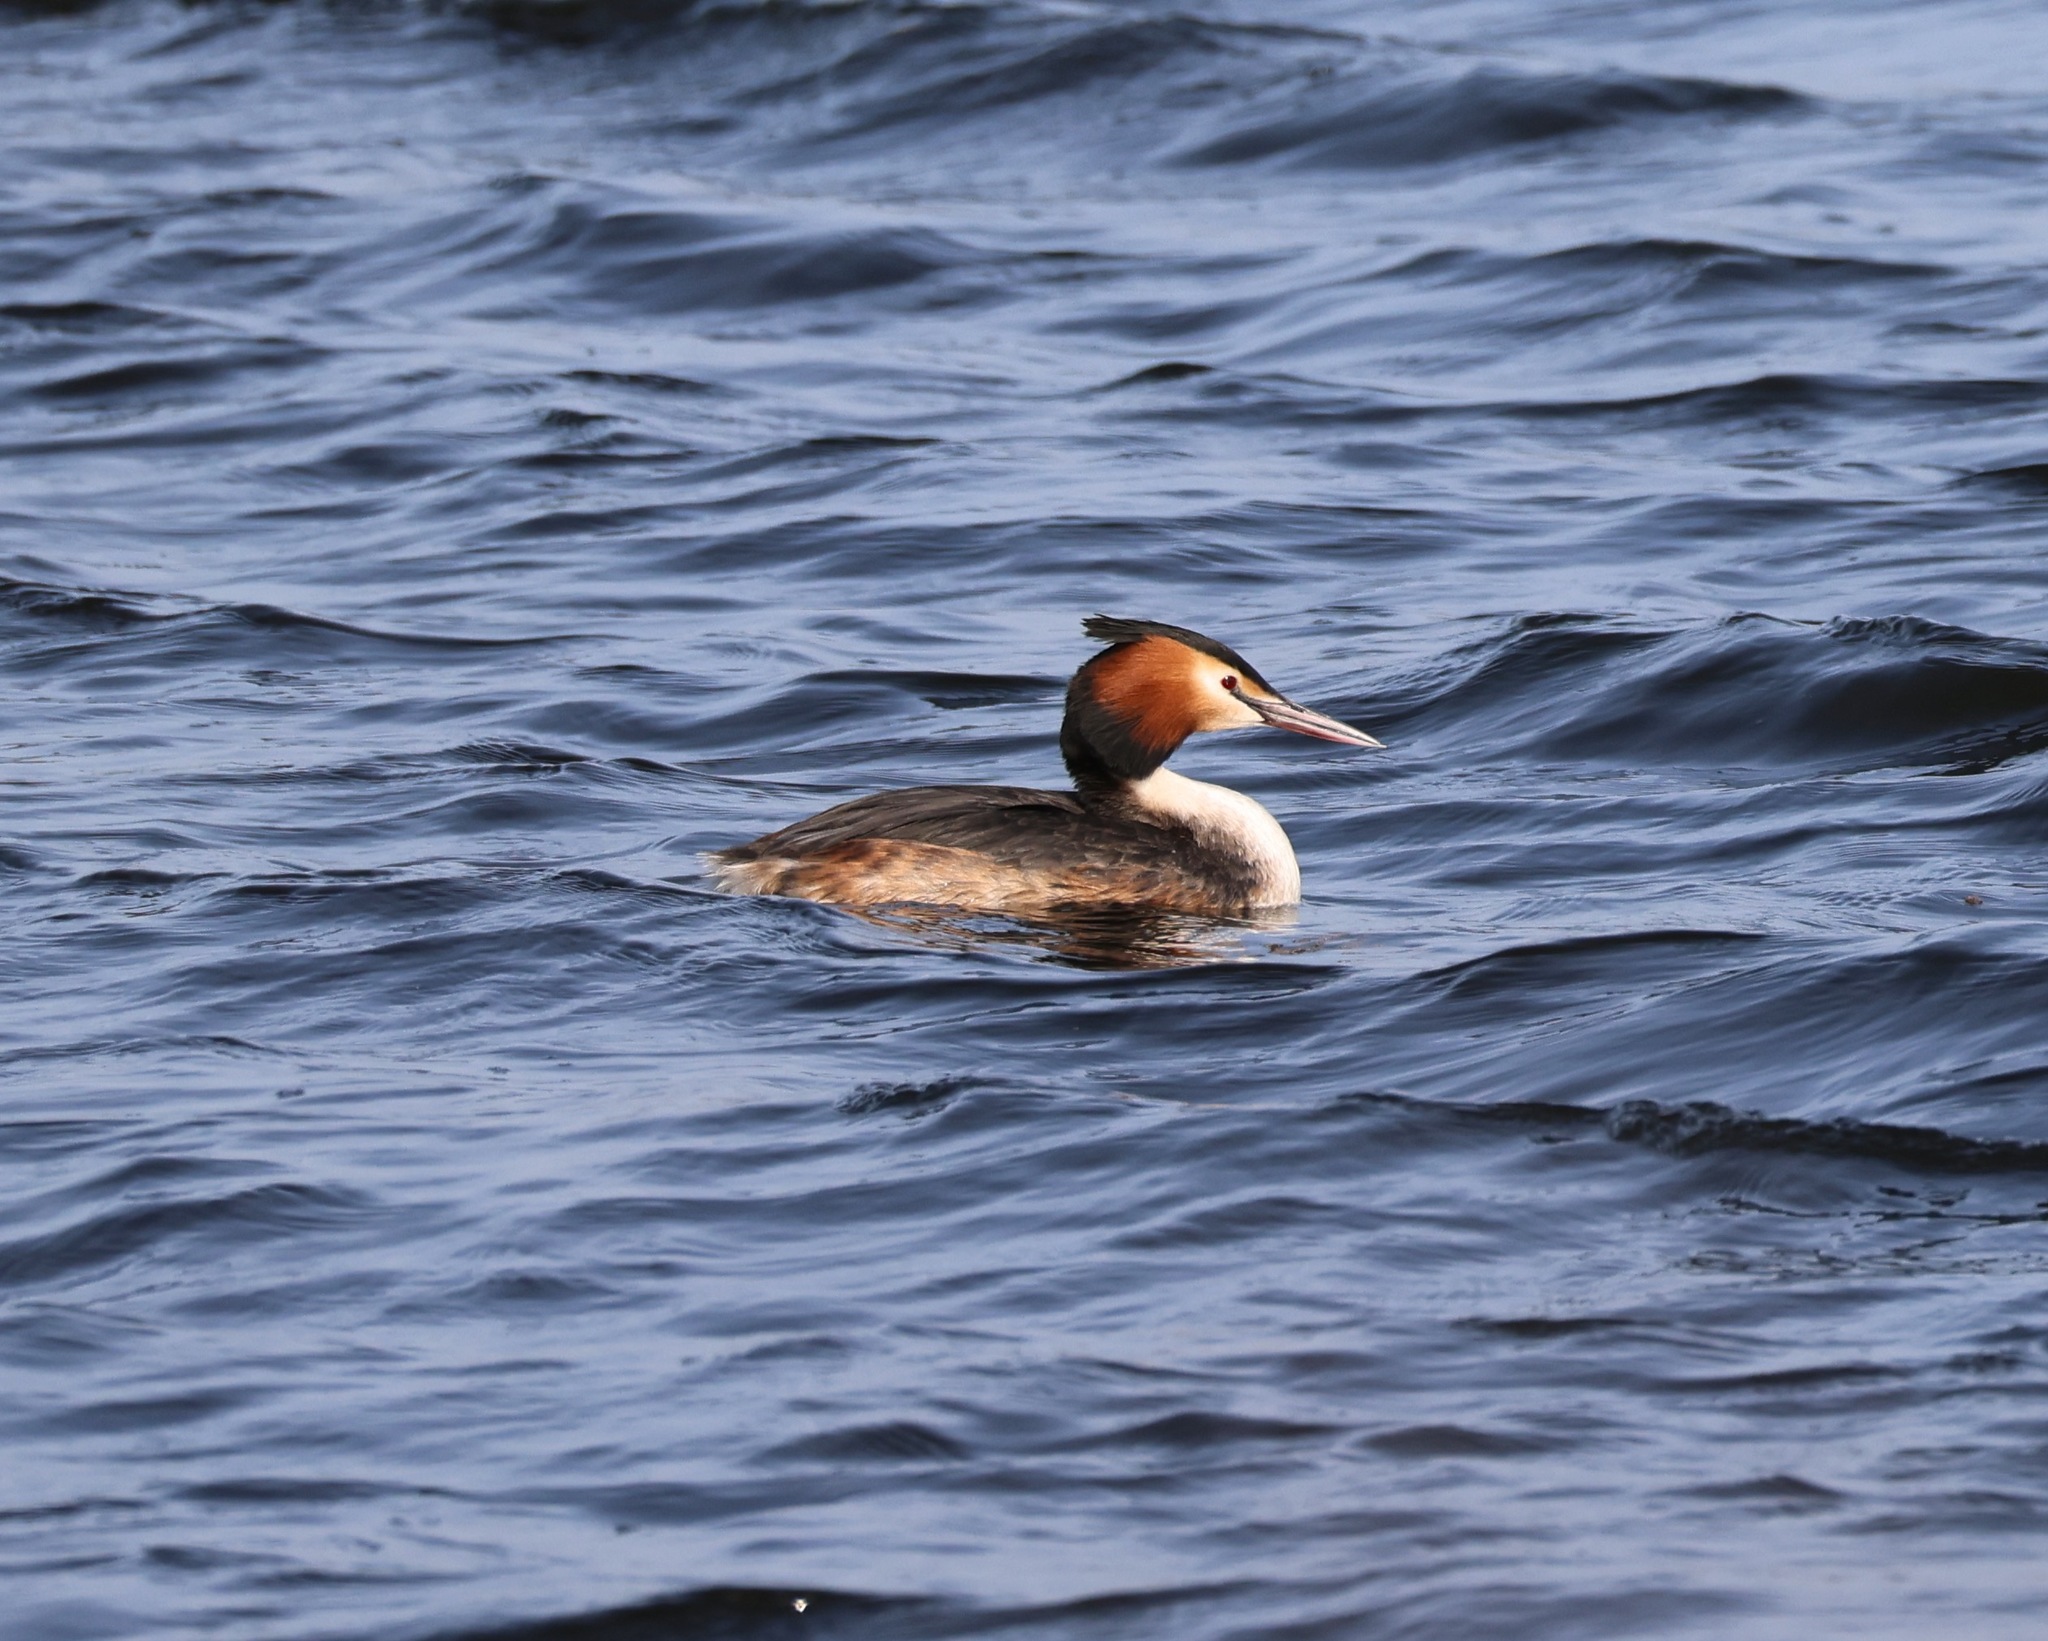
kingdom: Animalia
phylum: Chordata
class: Aves
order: Podicipediformes
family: Podicipedidae
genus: Podiceps
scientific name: Podiceps cristatus
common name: Great crested grebe
